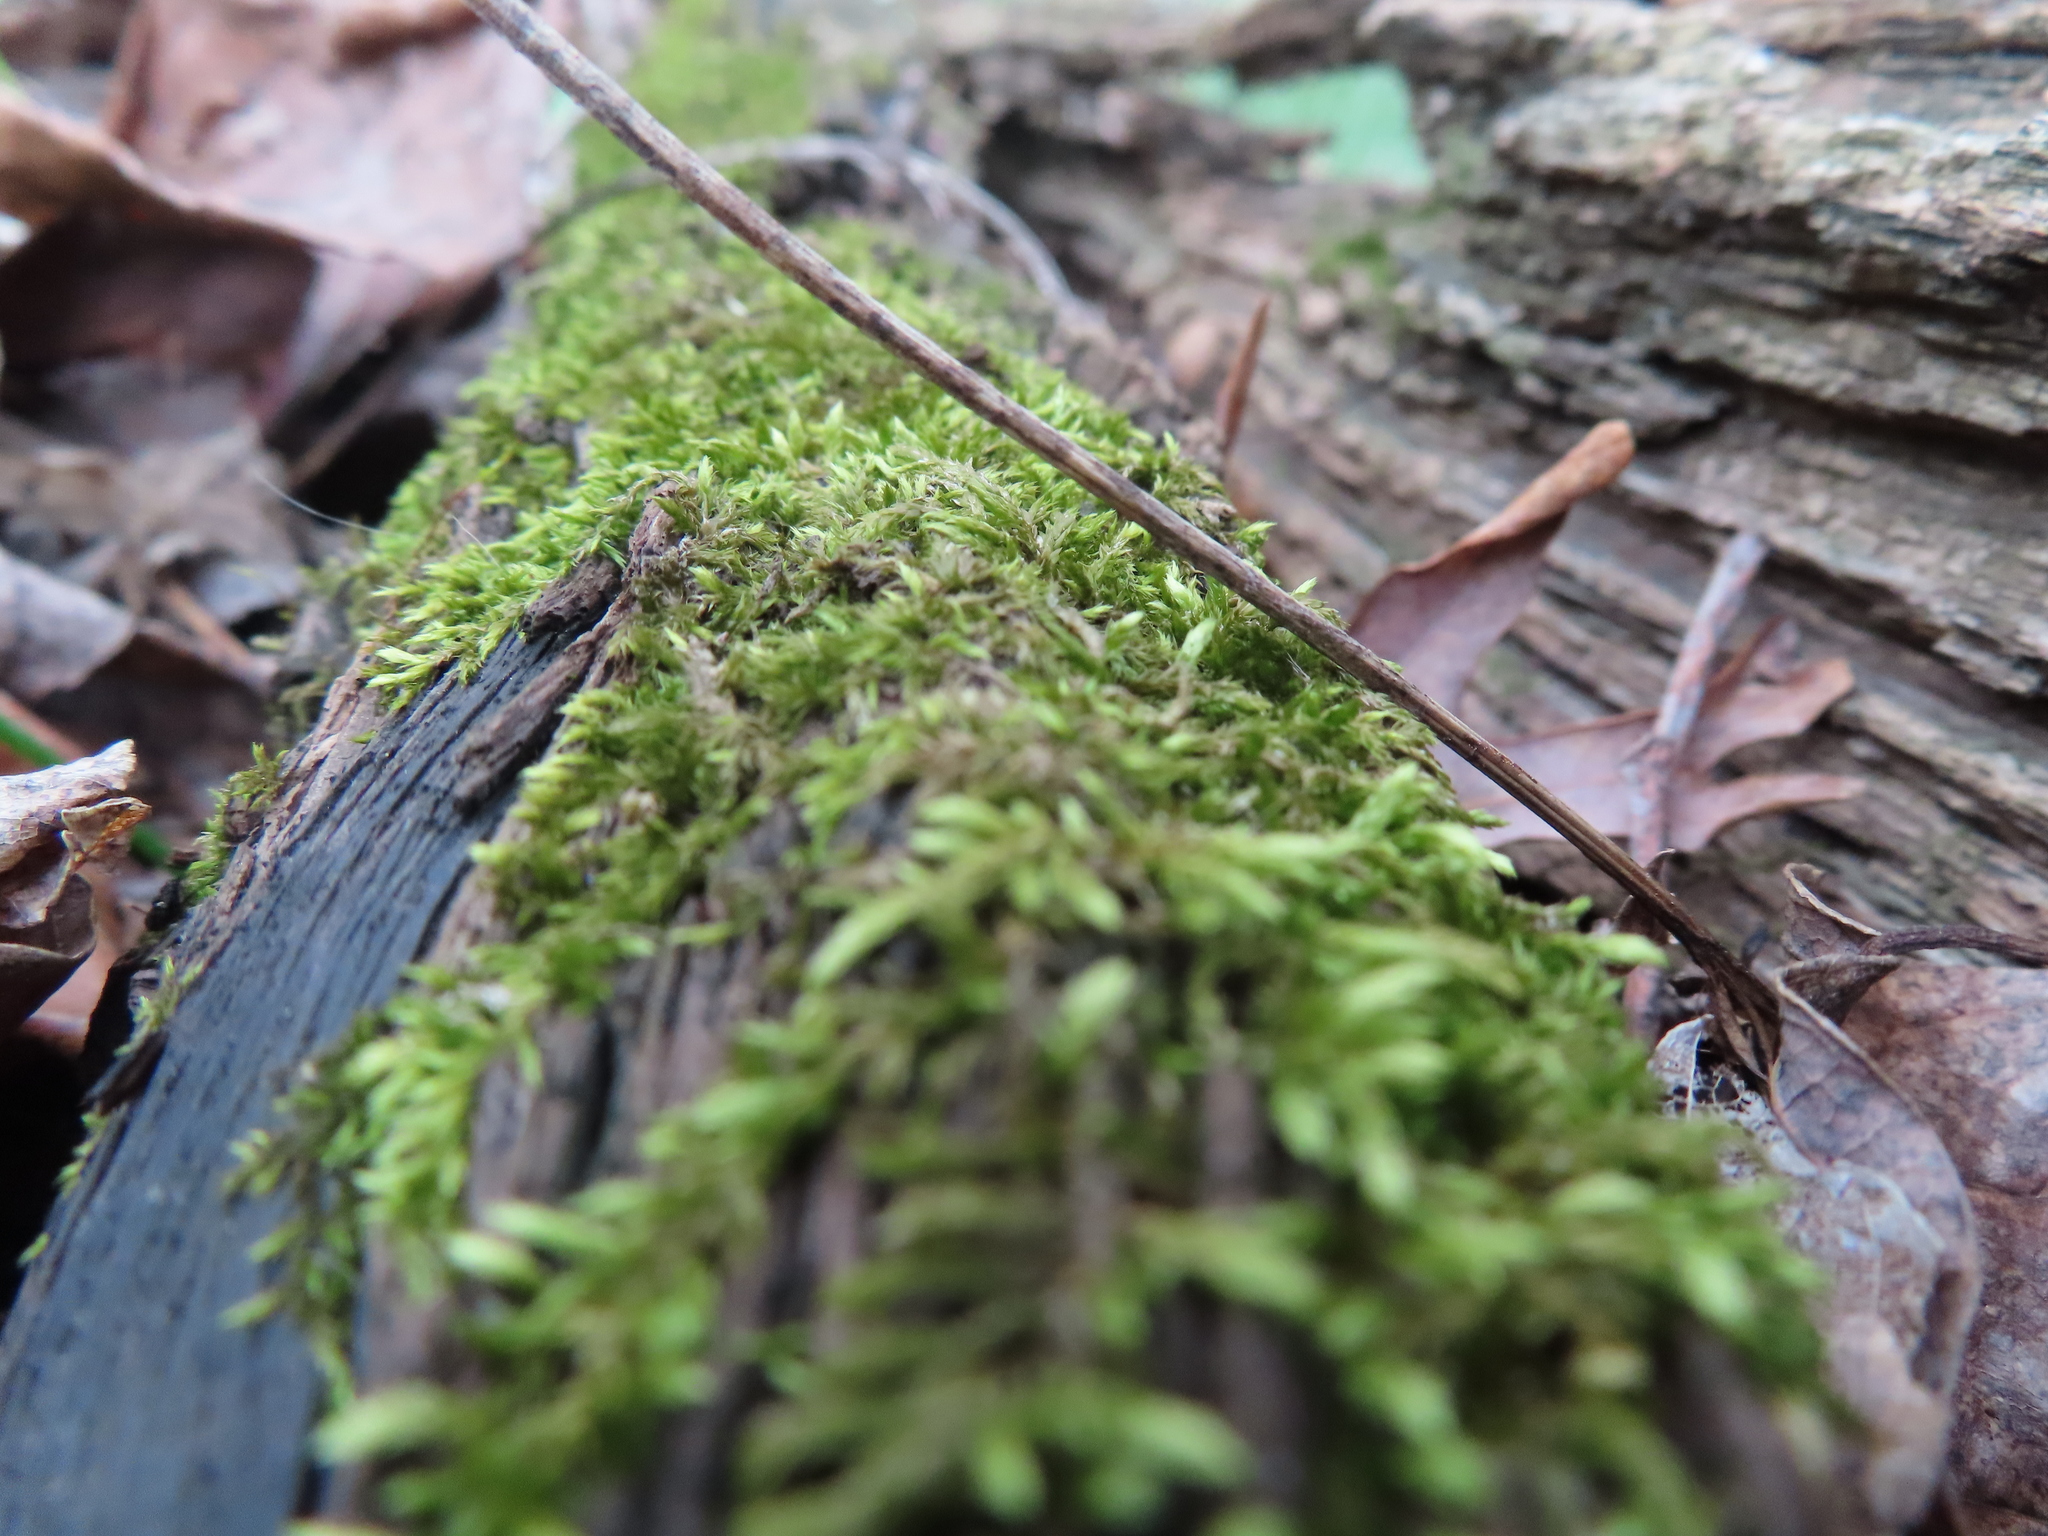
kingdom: Plantae
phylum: Bryophyta
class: Bryopsida
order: Hypnales
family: Callicladiaceae
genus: Callicladium
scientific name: Callicladium haldanianum
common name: Beautiful branch moss
